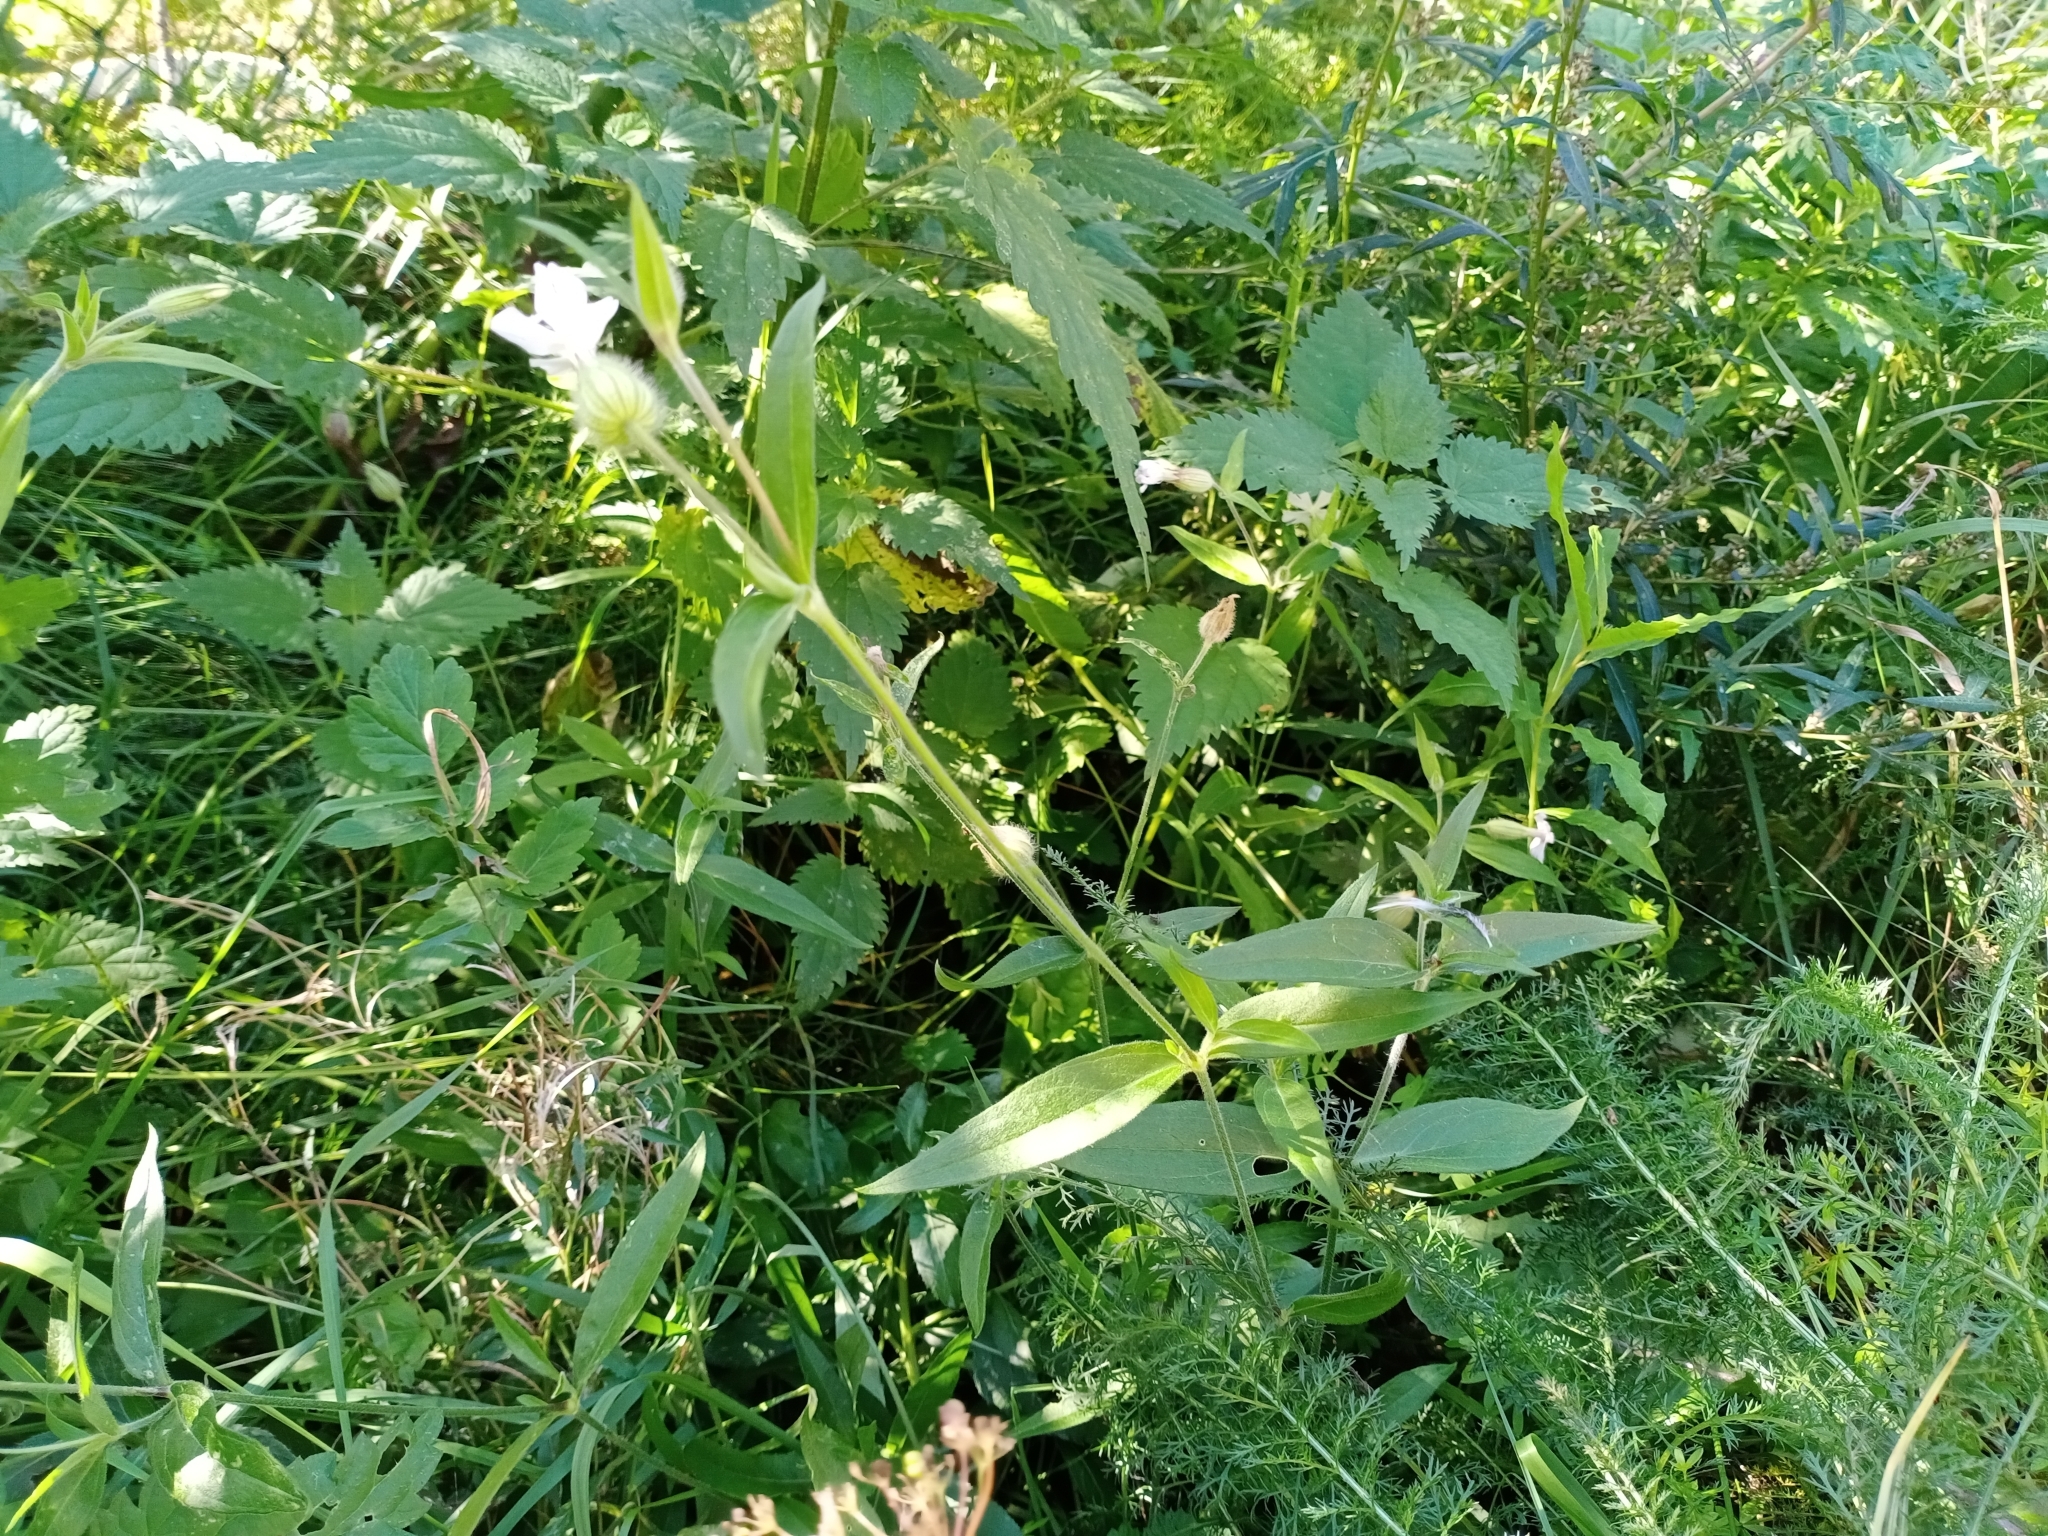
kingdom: Plantae
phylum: Tracheophyta
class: Magnoliopsida
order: Caryophyllales
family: Caryophyllaceae
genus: Silene
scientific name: Silene latifolia
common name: White campion
